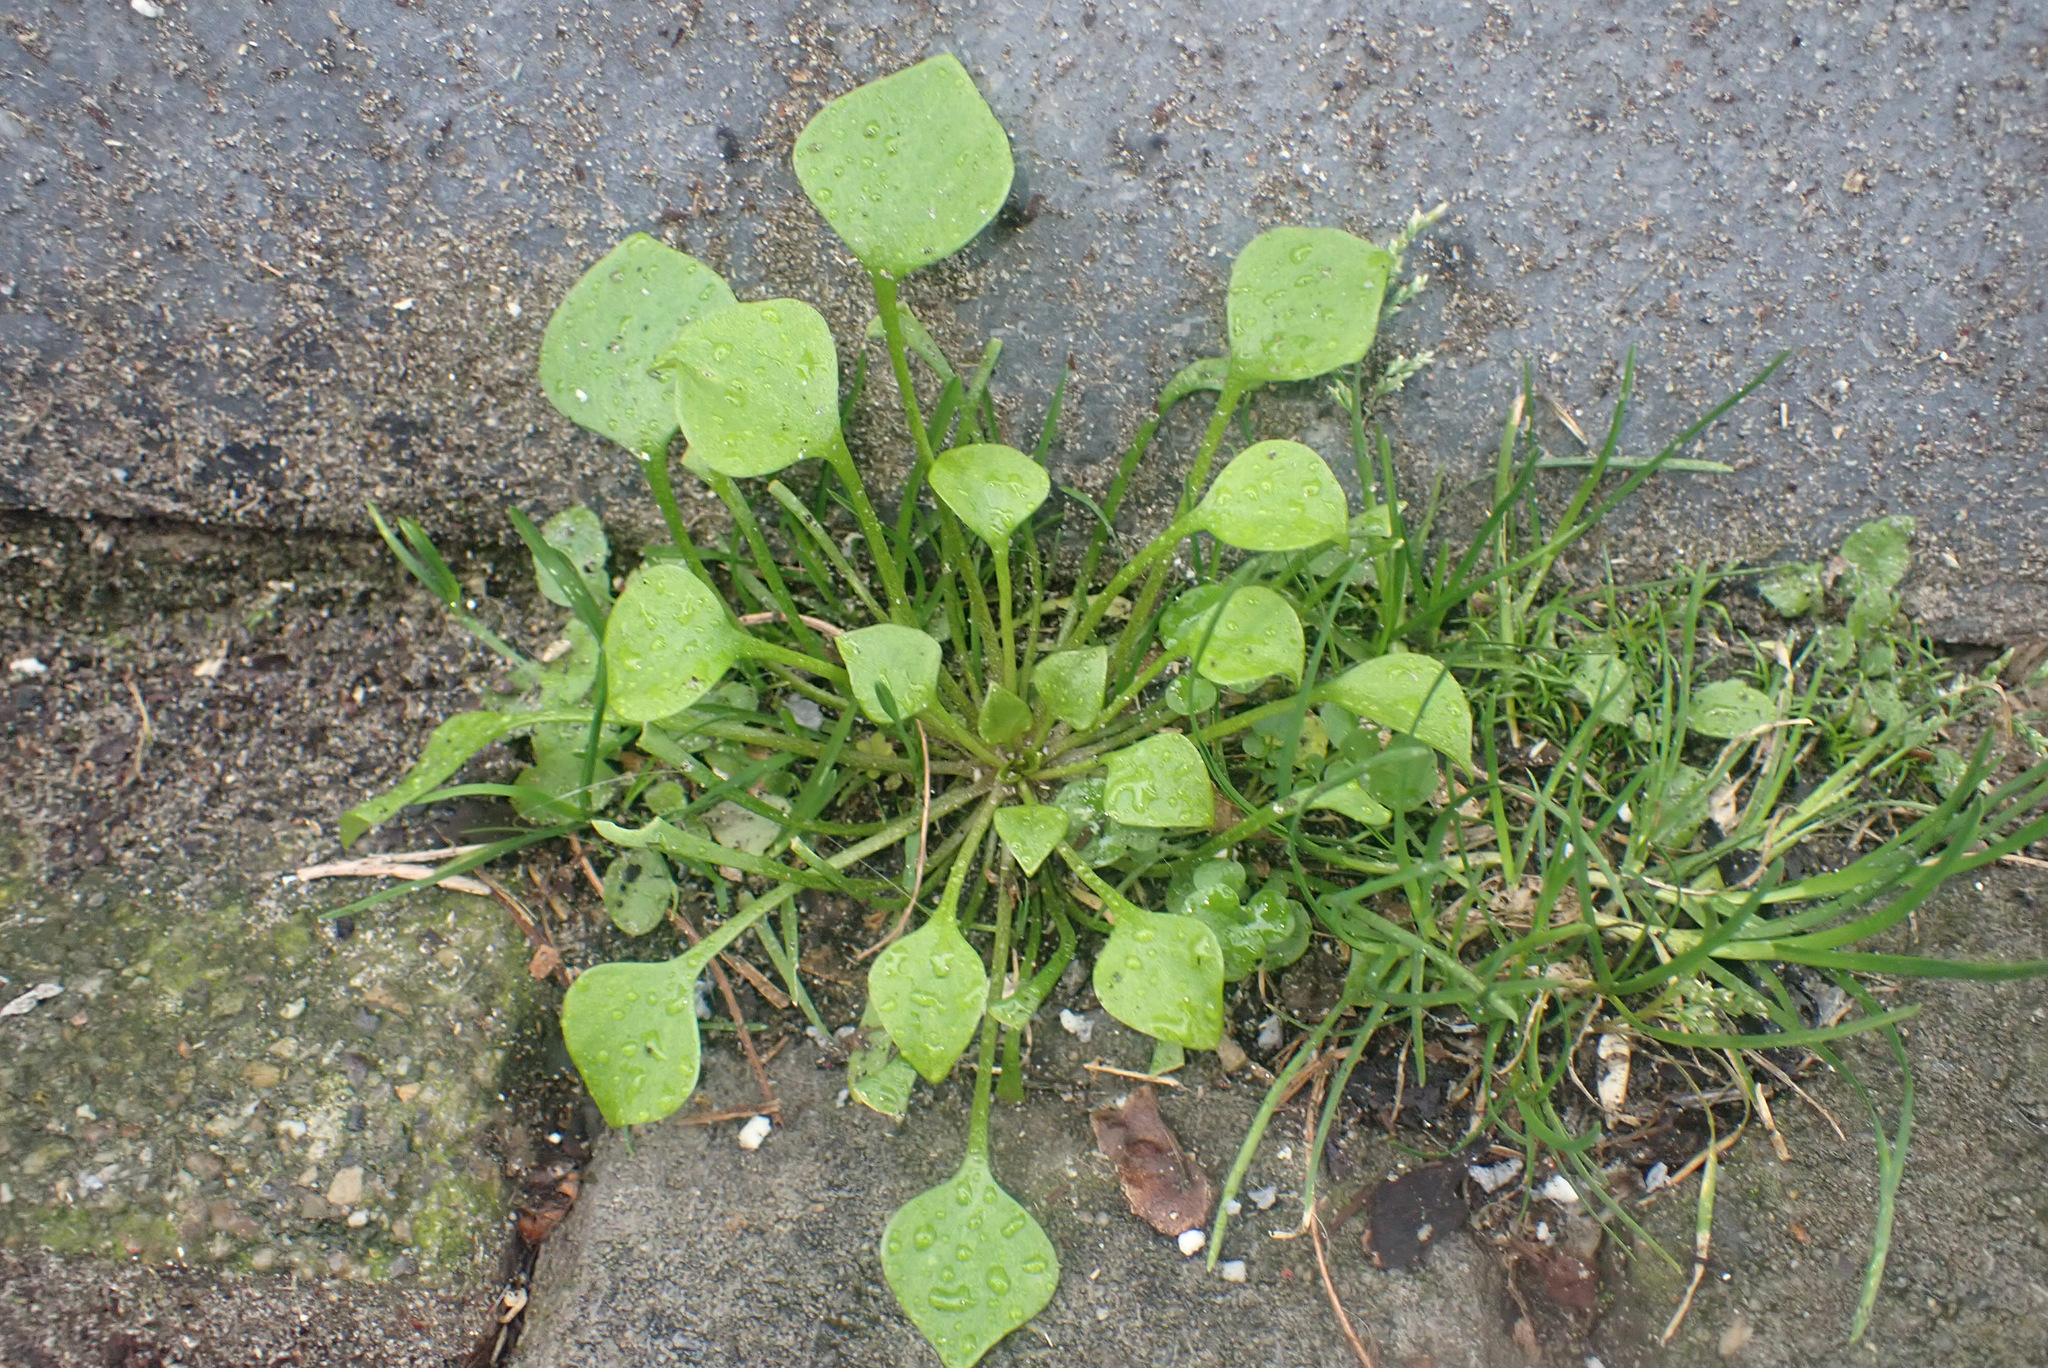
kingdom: Plantae
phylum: Tracheophyta
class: Magnoliopsida
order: Caryophyllales
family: Montiaceae
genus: Claytonia
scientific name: Claytonia perfoliata
